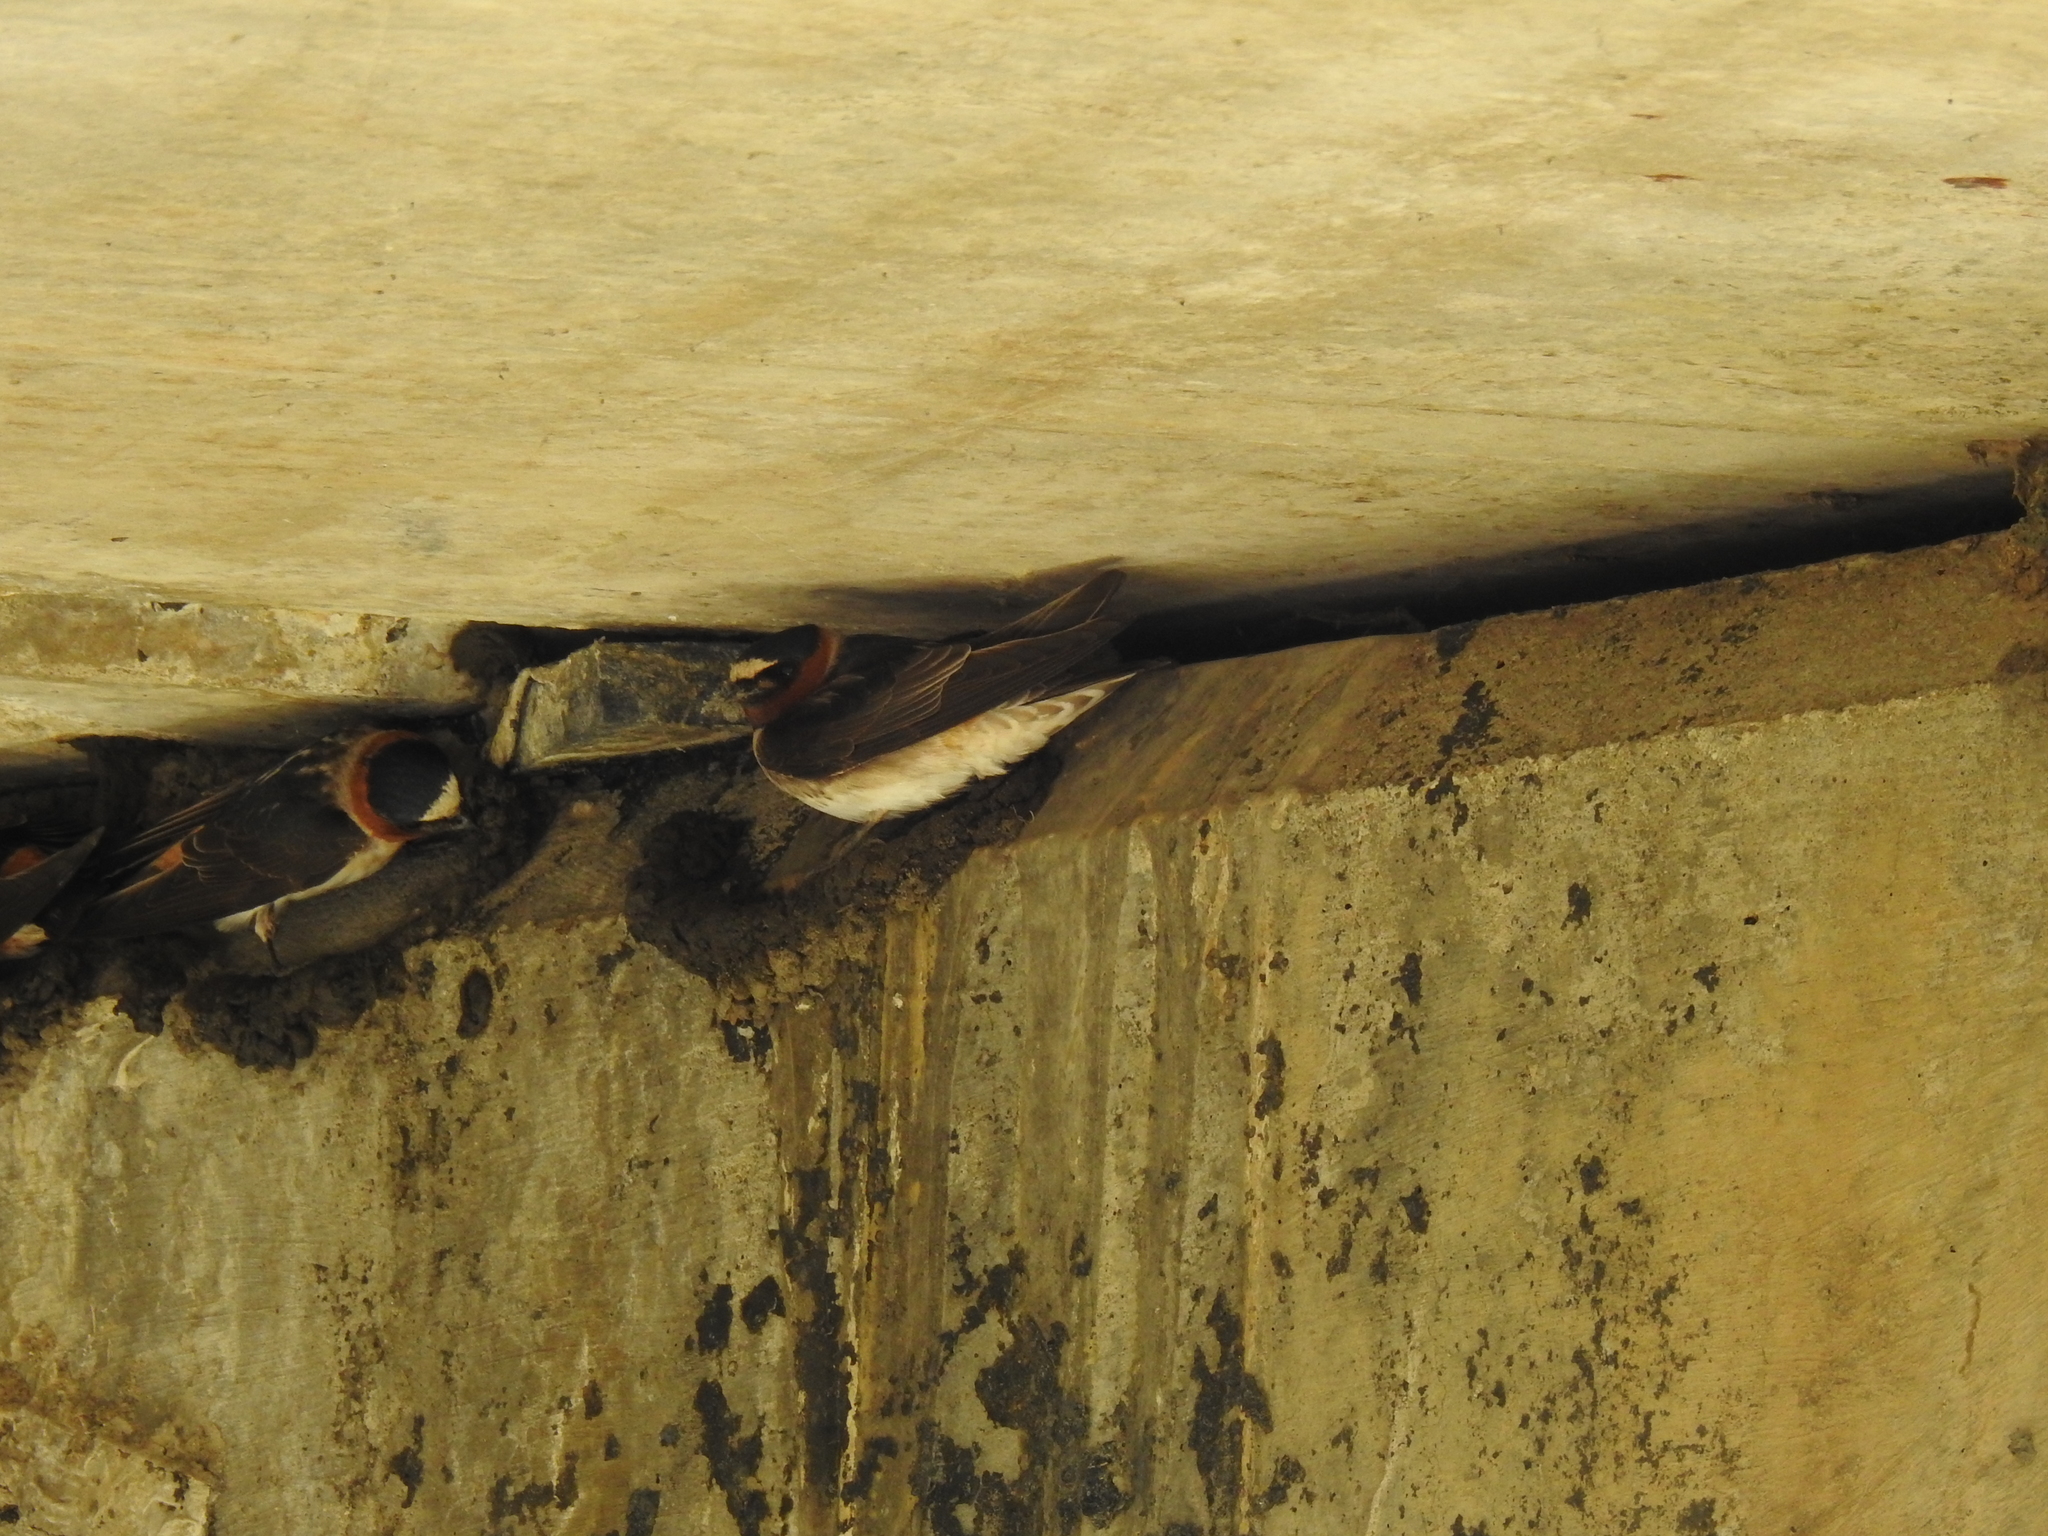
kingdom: Animalia
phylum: Chordata
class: Aves
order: Passeriformes
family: Hirundinidae
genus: Petrochelidon
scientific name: Petrochelidon pyrrhonota
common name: American cliff swallow
